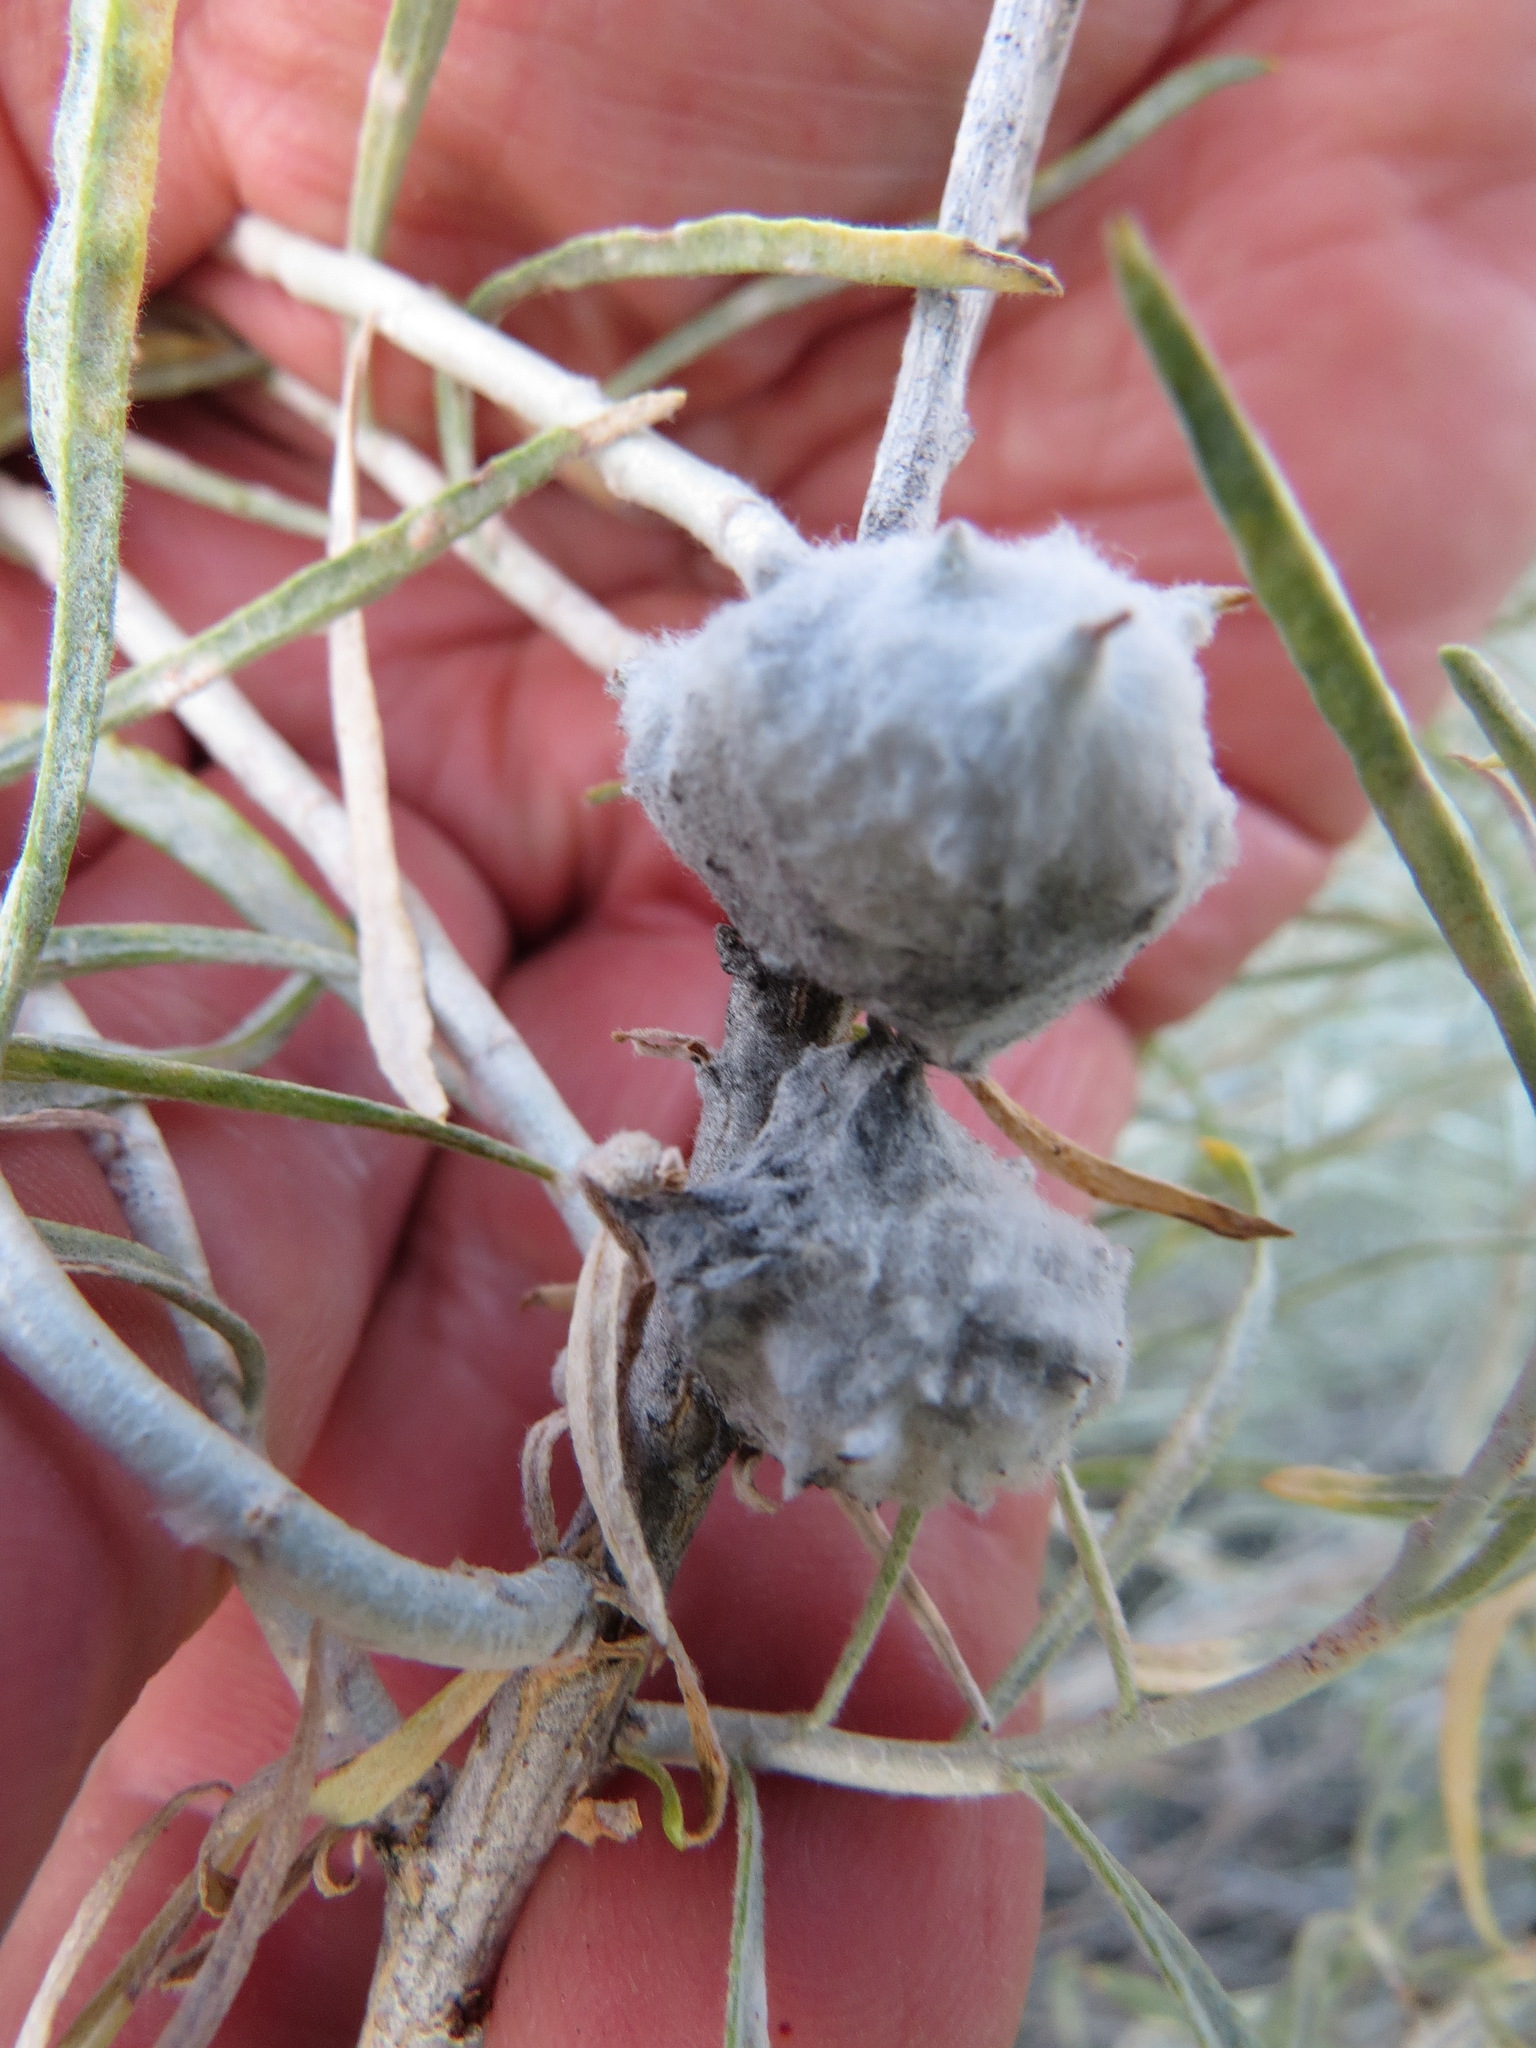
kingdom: Animalia
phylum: Arthropoda
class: Insecta
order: Diptera
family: Tephritidae
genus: Aciurina
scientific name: Aciurina bigeloviae
